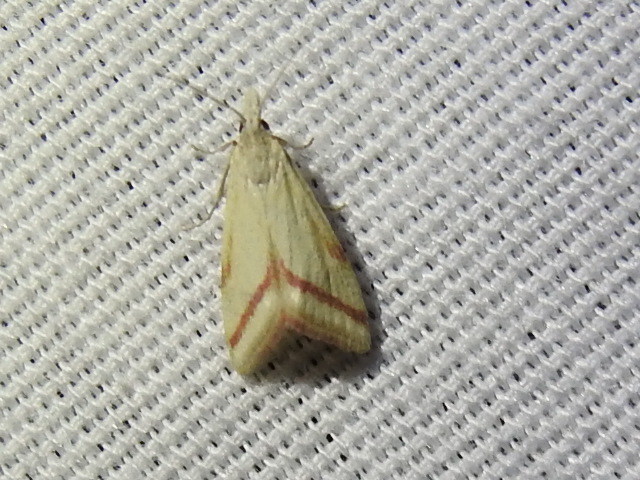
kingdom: Animalia
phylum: Arthropoda
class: Insecta
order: Lepidoptera
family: Crambidae
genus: Microtheoris
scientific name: Microtheoris vibicalis
